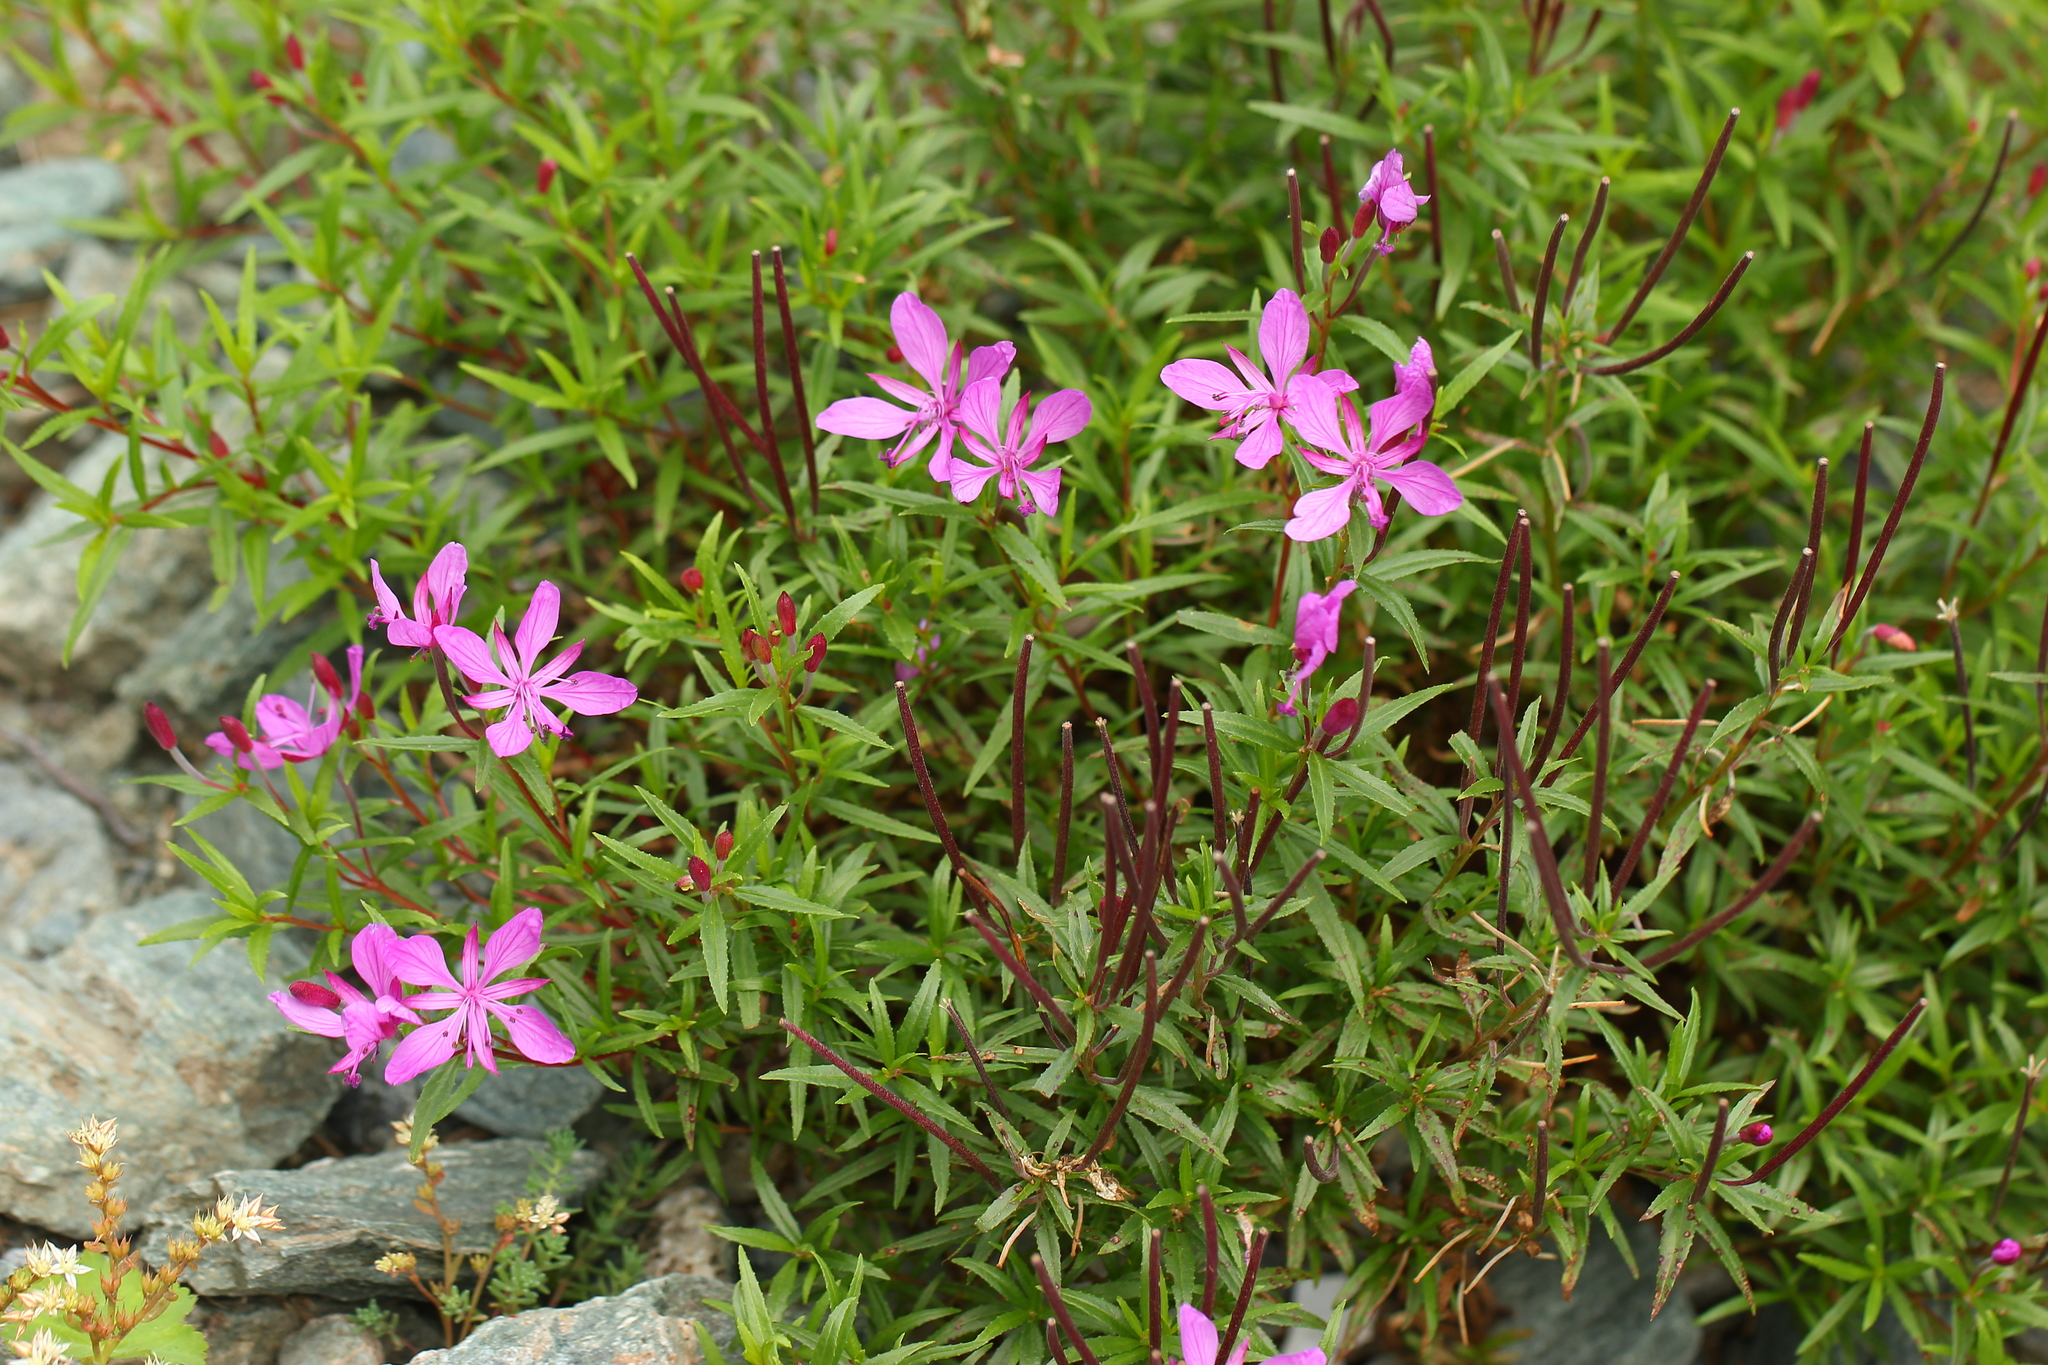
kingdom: Plantae
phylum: Tracheophyta
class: Magnoliopsida
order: Myrtales
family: Onagraceae
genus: Chamaenerion
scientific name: Chamaenerion colchicum
